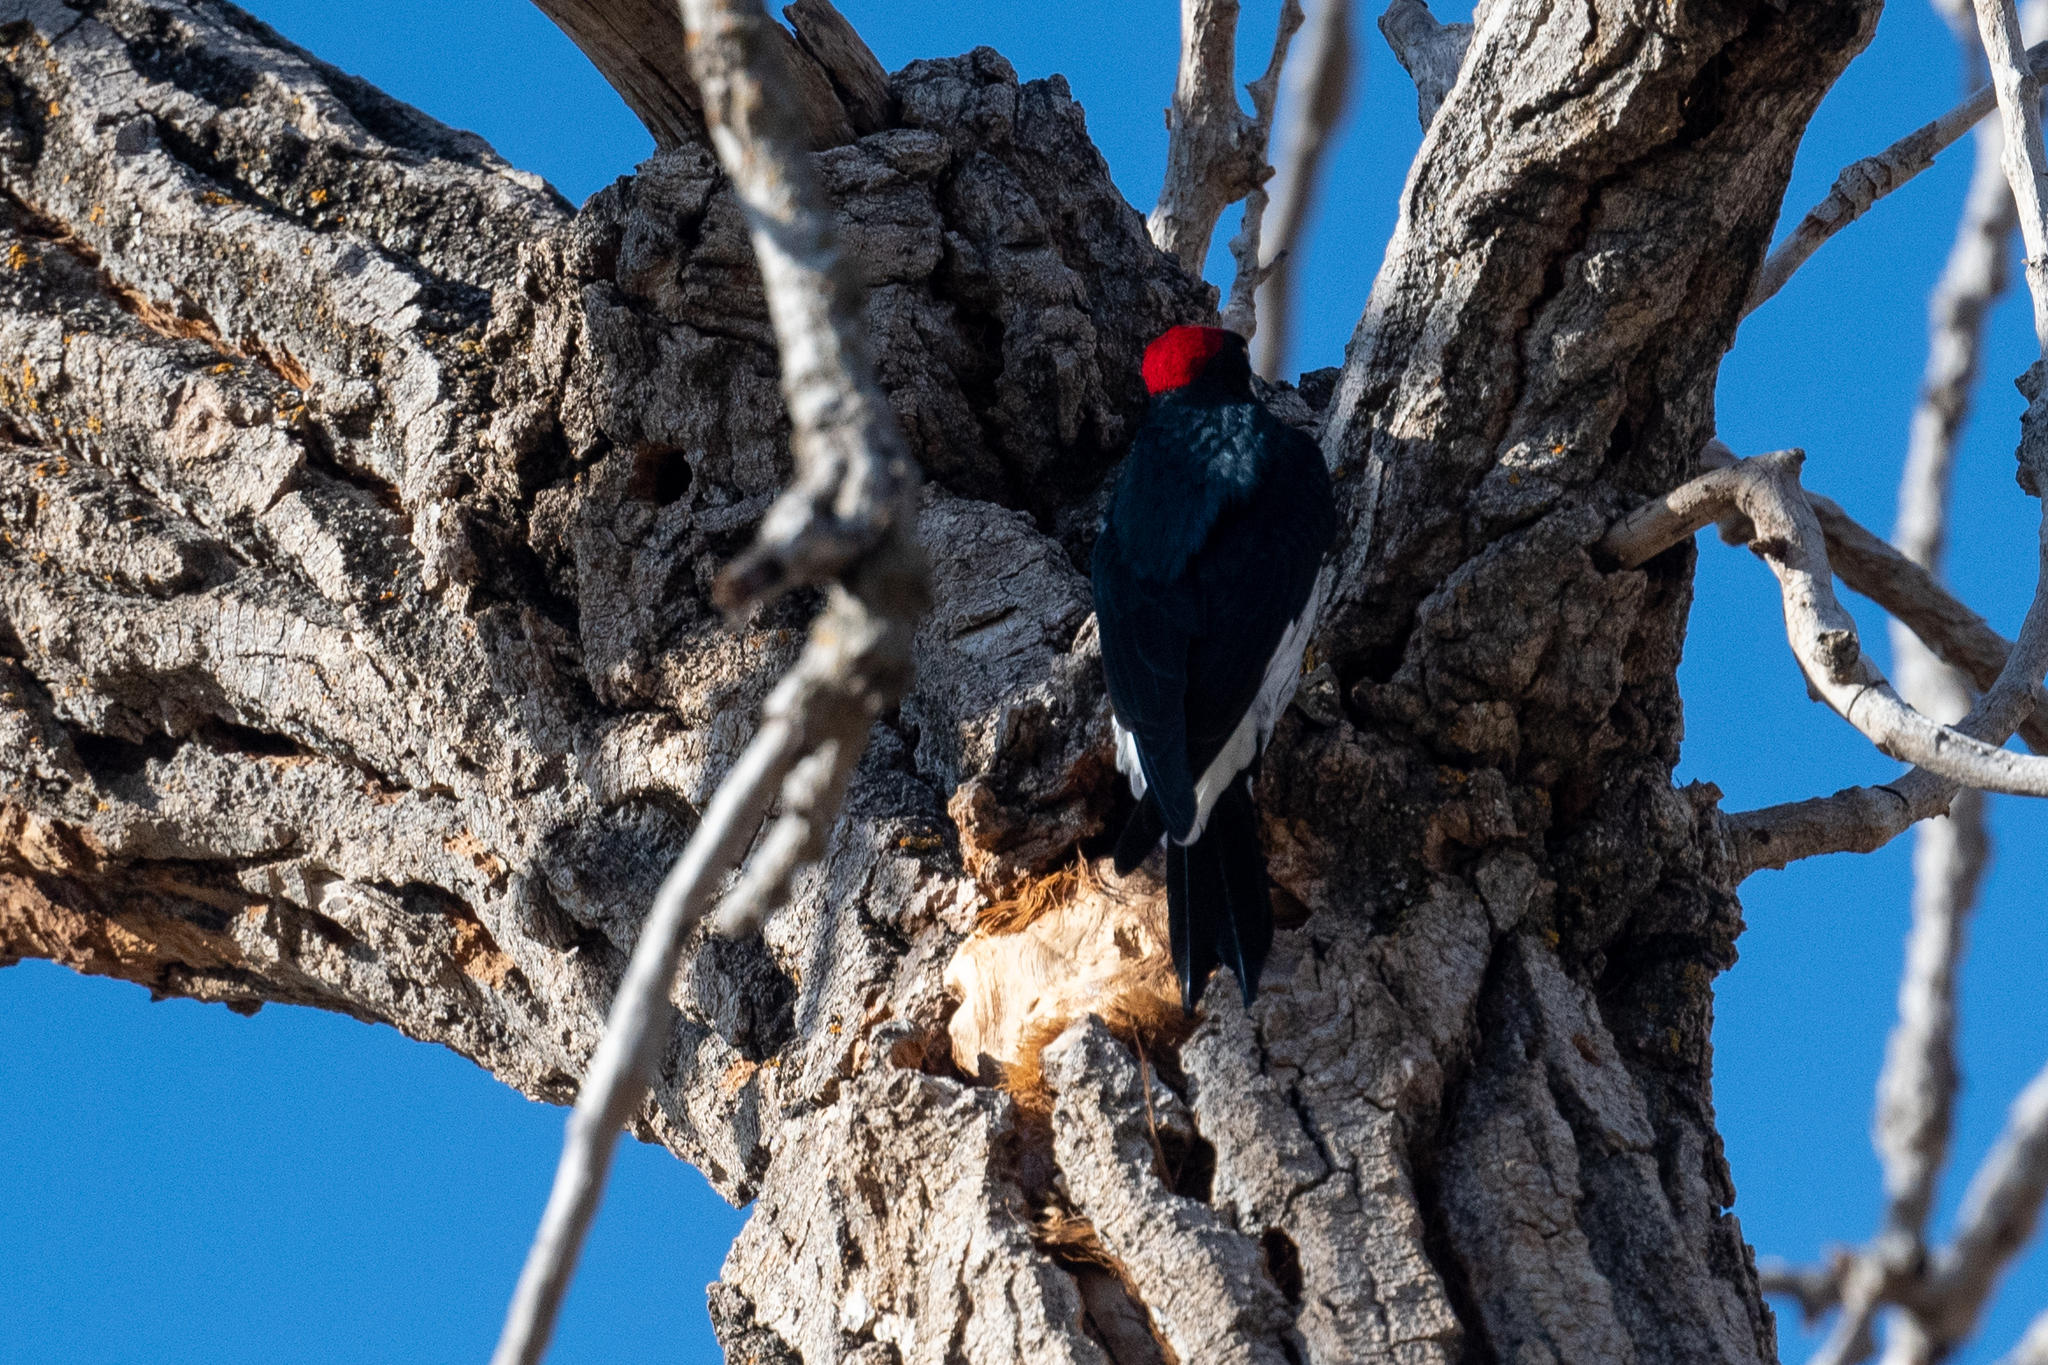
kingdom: Animalia
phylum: Chordata
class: Aves
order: Piciformes
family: Picidae
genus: Melanerpes
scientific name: Melanerpes formicivorus
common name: Acorn woodpecker
